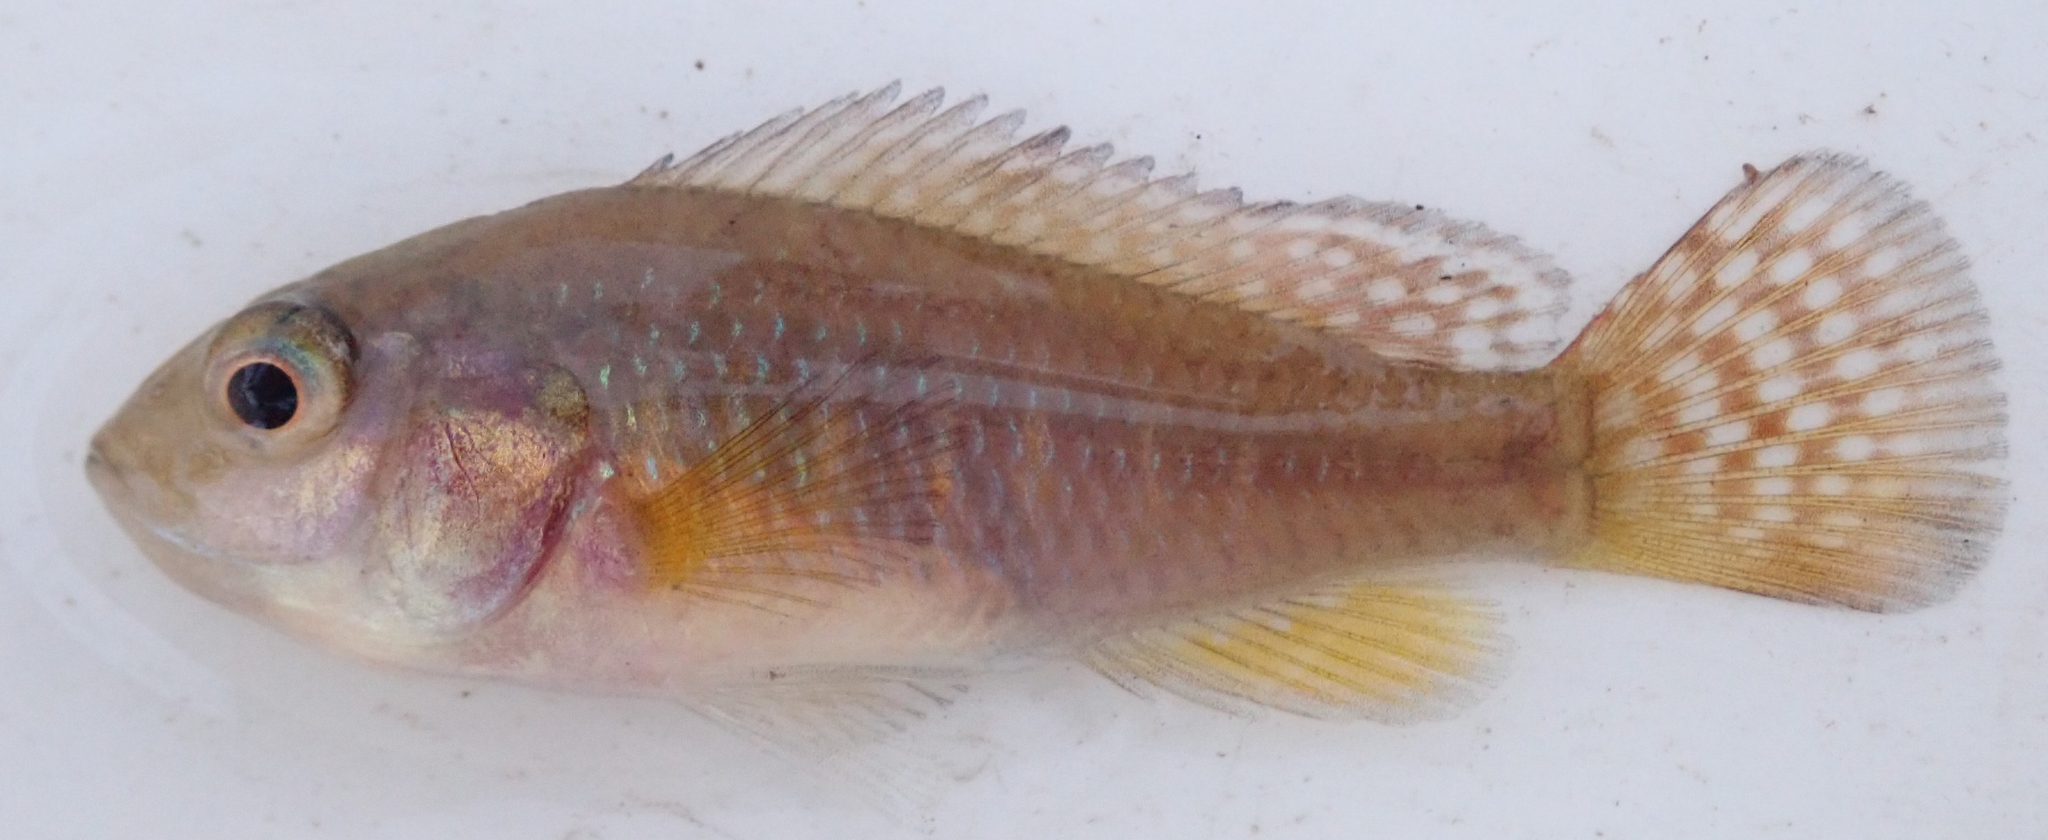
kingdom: Animalia
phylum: Chordata
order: Perciformes
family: Cichlidae
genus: Pseudocrenilabrus
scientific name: Pseudocrenilabrus philander
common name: Southern mouthbrooder
